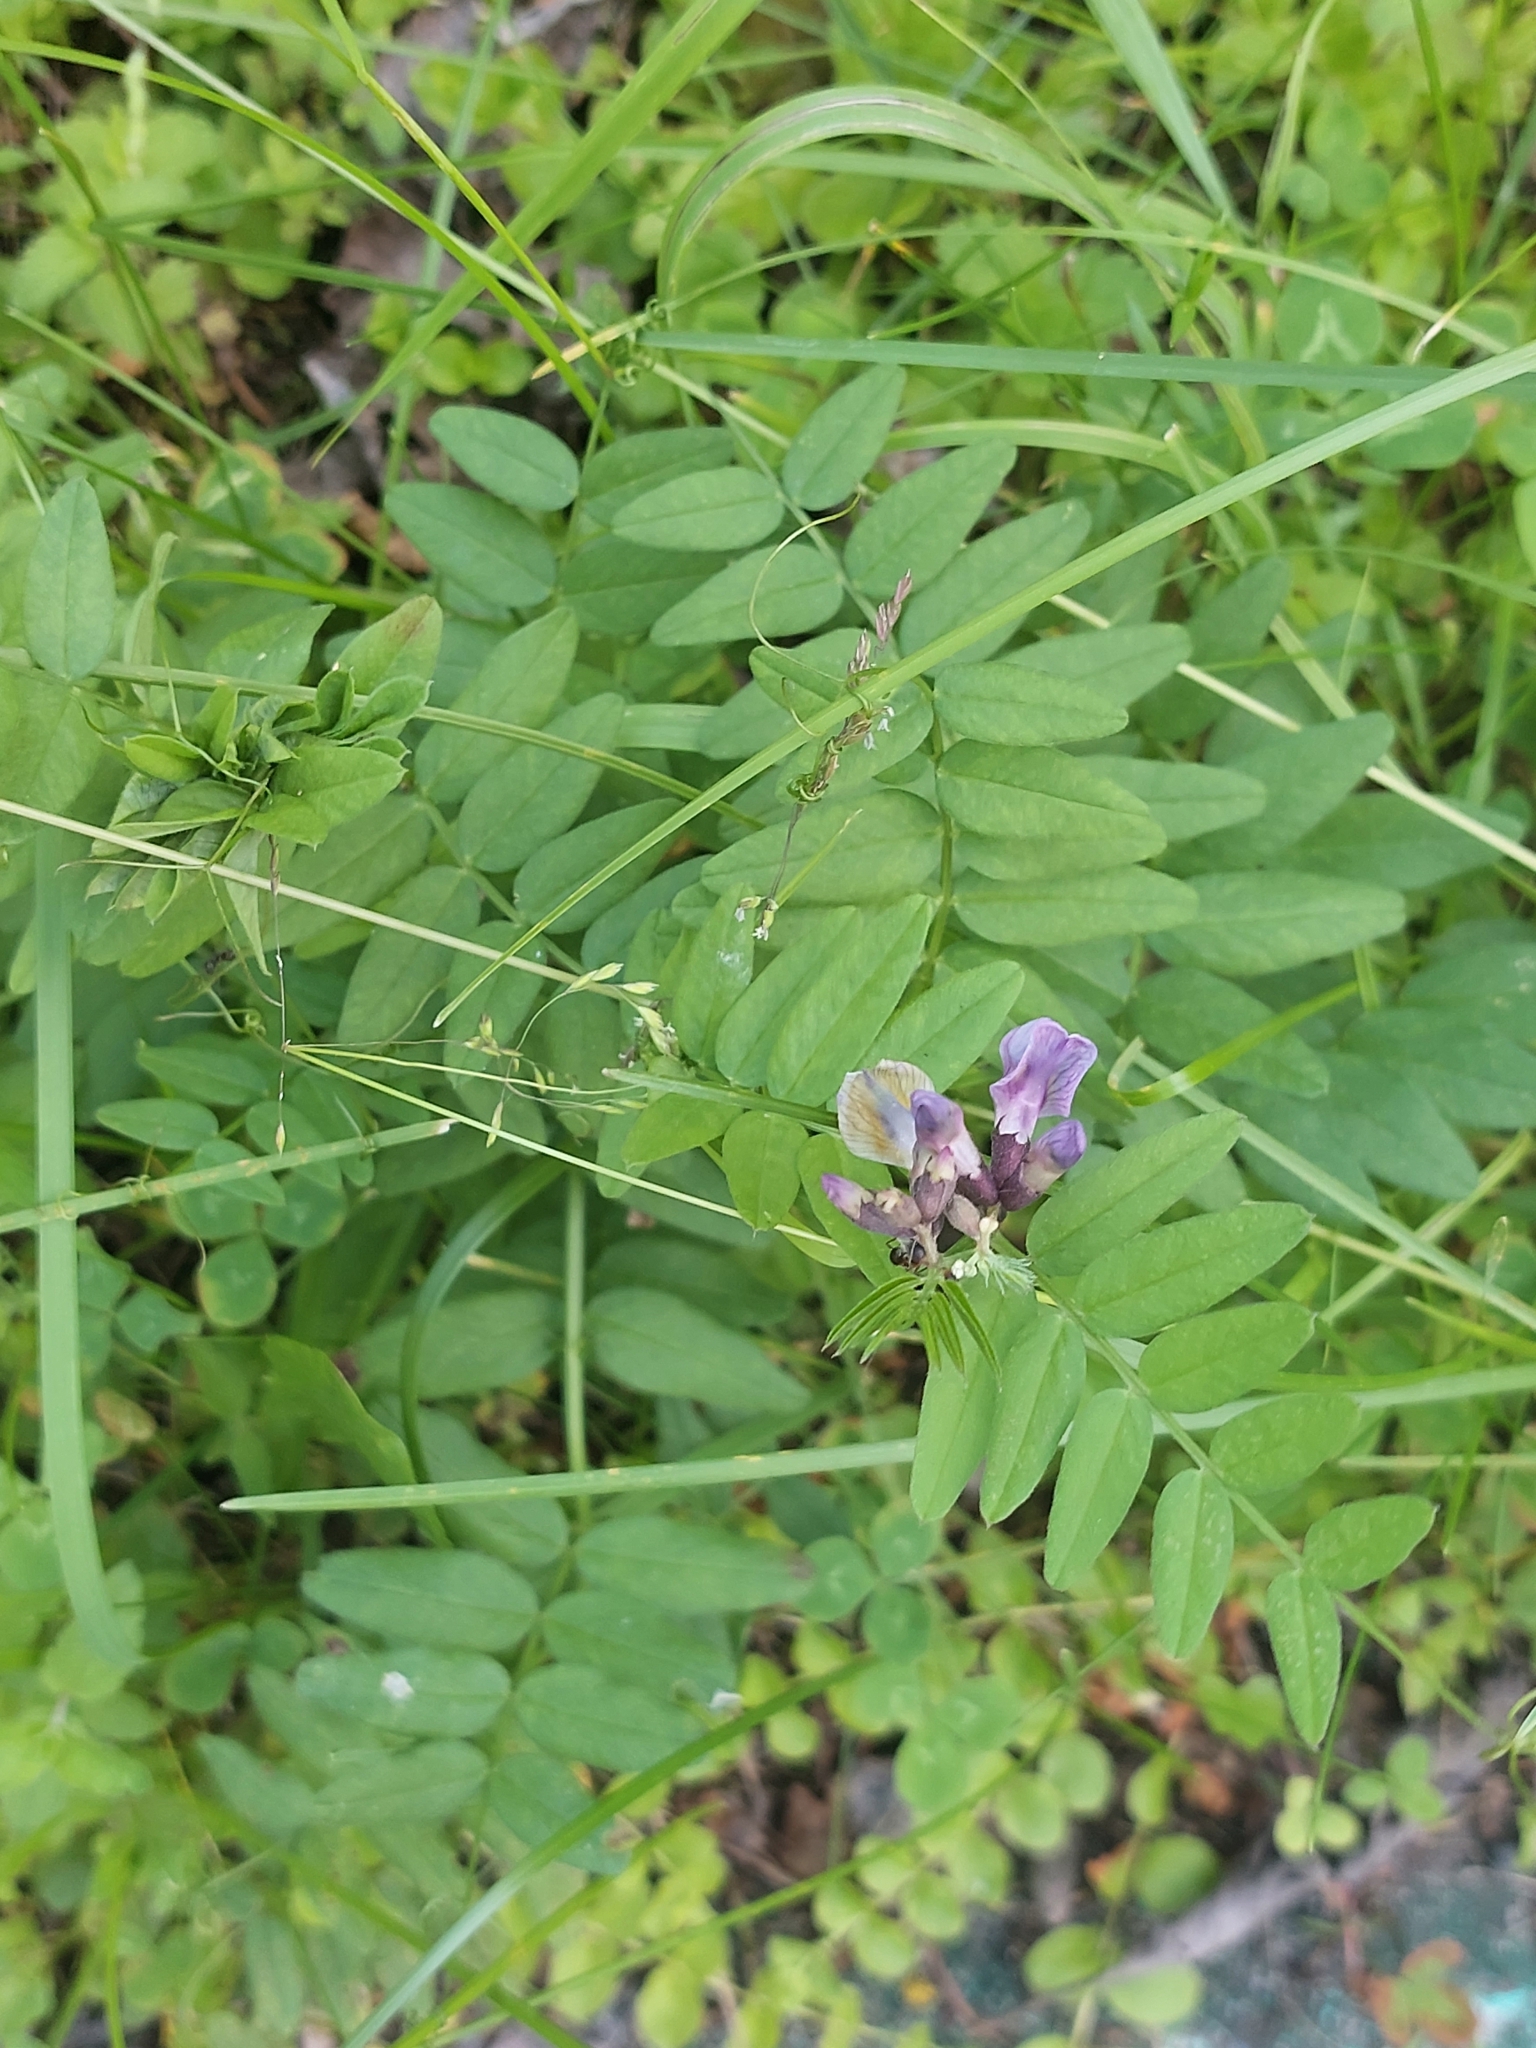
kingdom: Plantae
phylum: Tracheophyta
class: Magnoliopsida
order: Fabales
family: Fabaceae
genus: Vicia
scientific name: Vicia sepium
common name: Bush vetch
